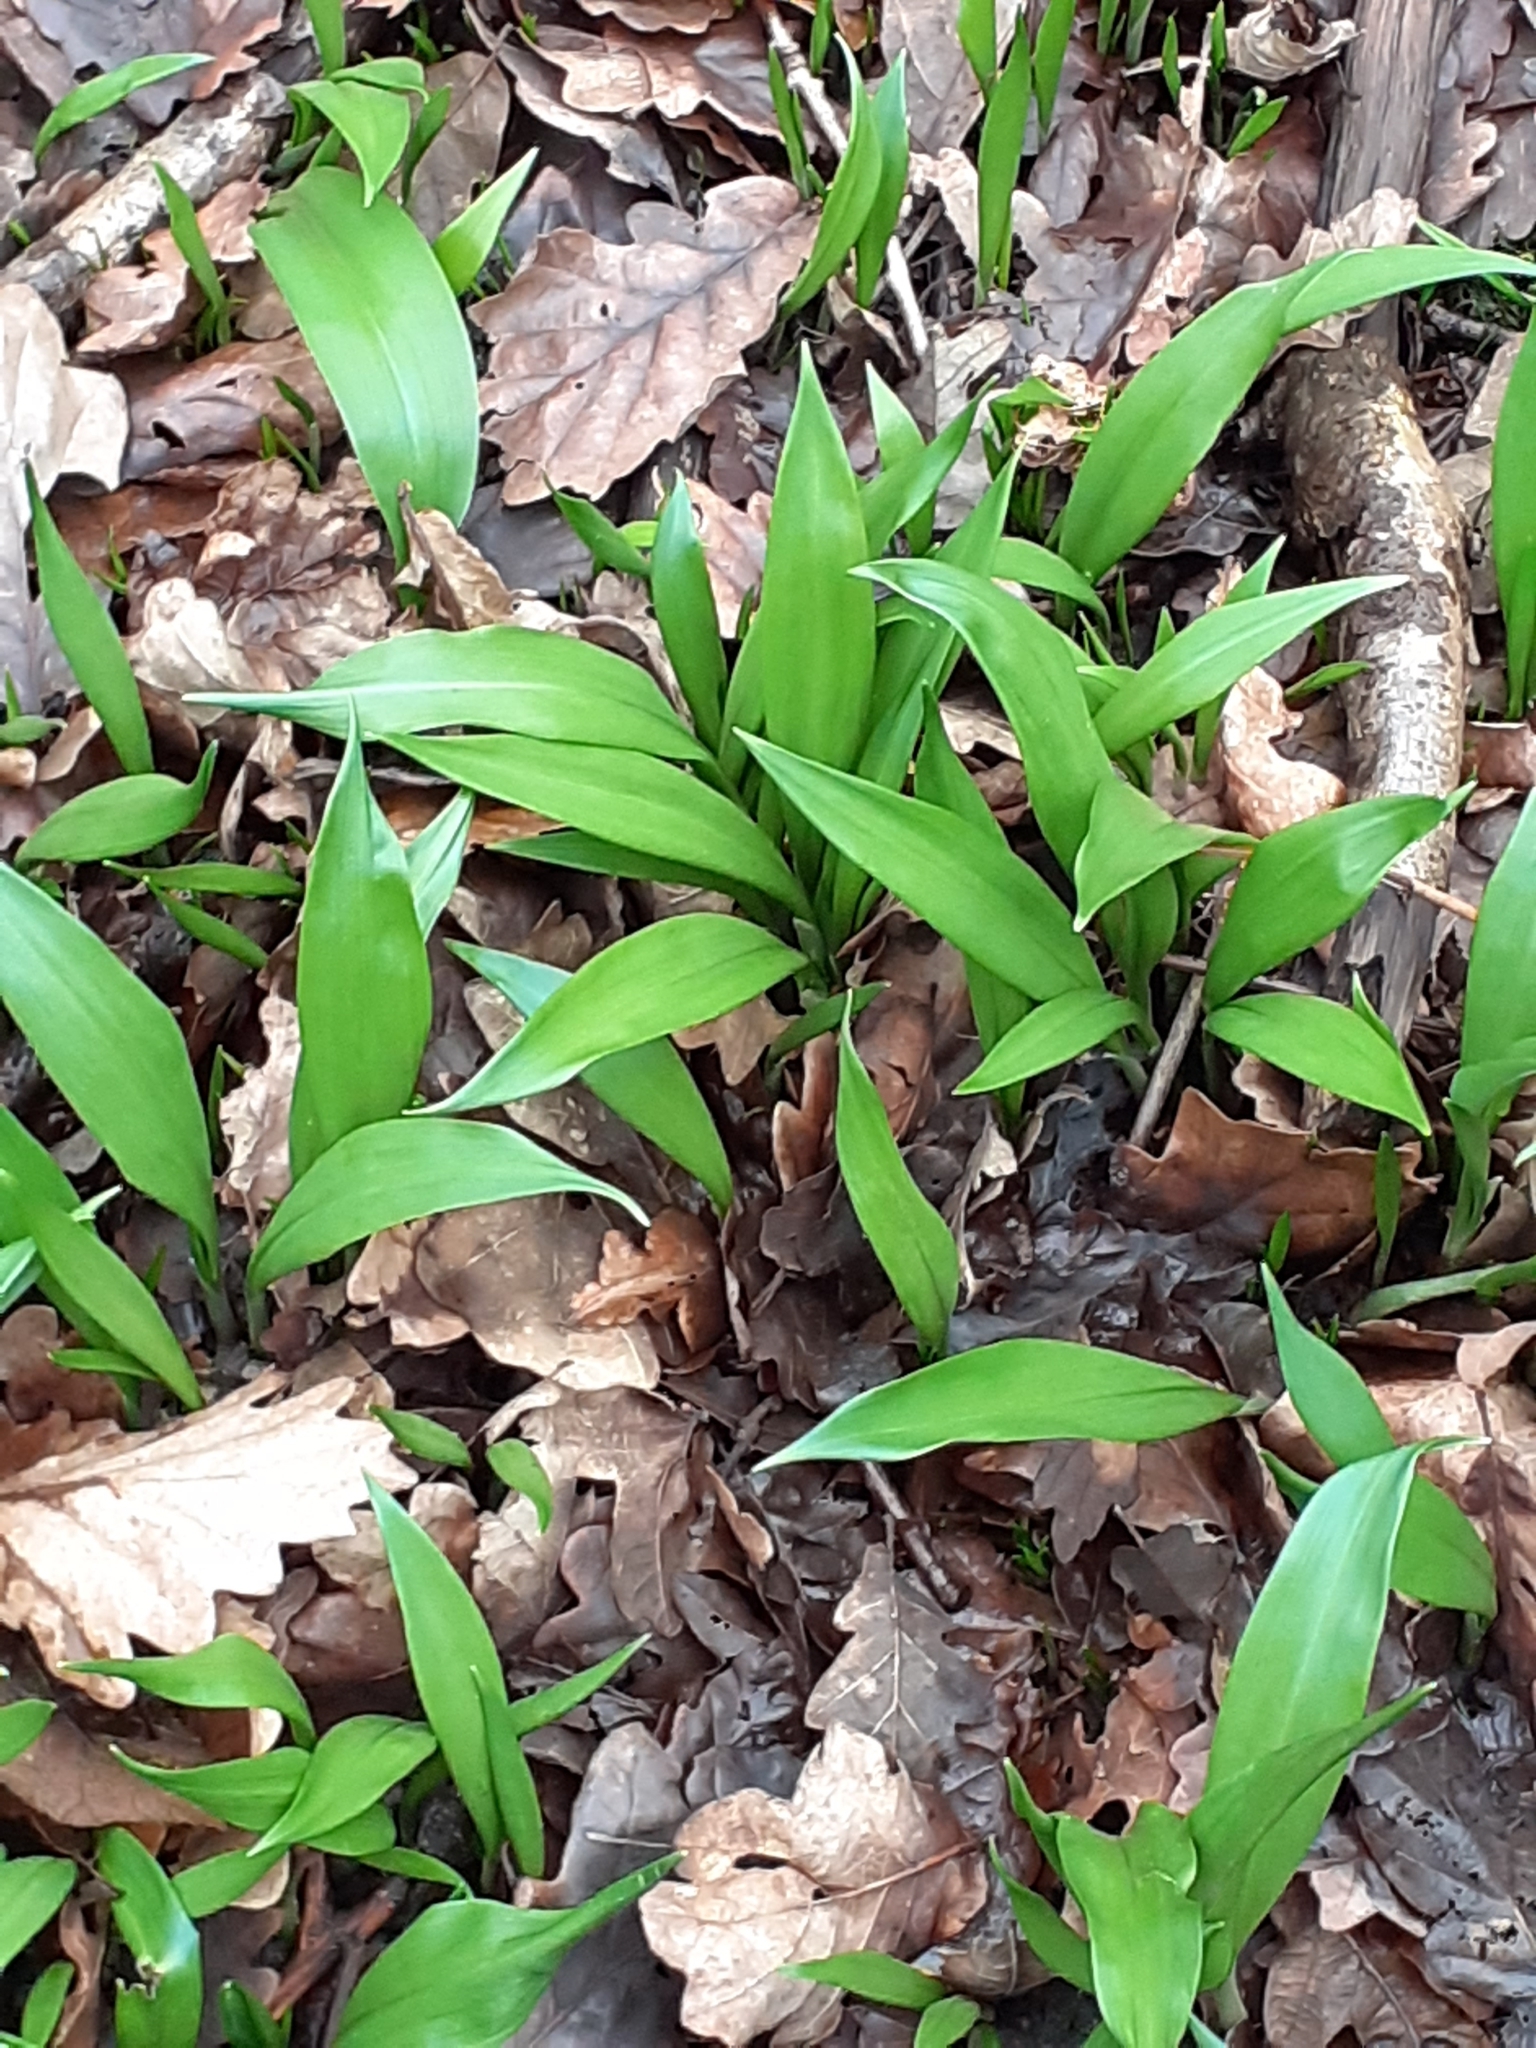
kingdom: Plantae
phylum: Tracheophyta
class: Liliopsida
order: Asparagales
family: Amaryllidaceae
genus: Allium
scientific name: Allium ursinum
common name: Ramsons
